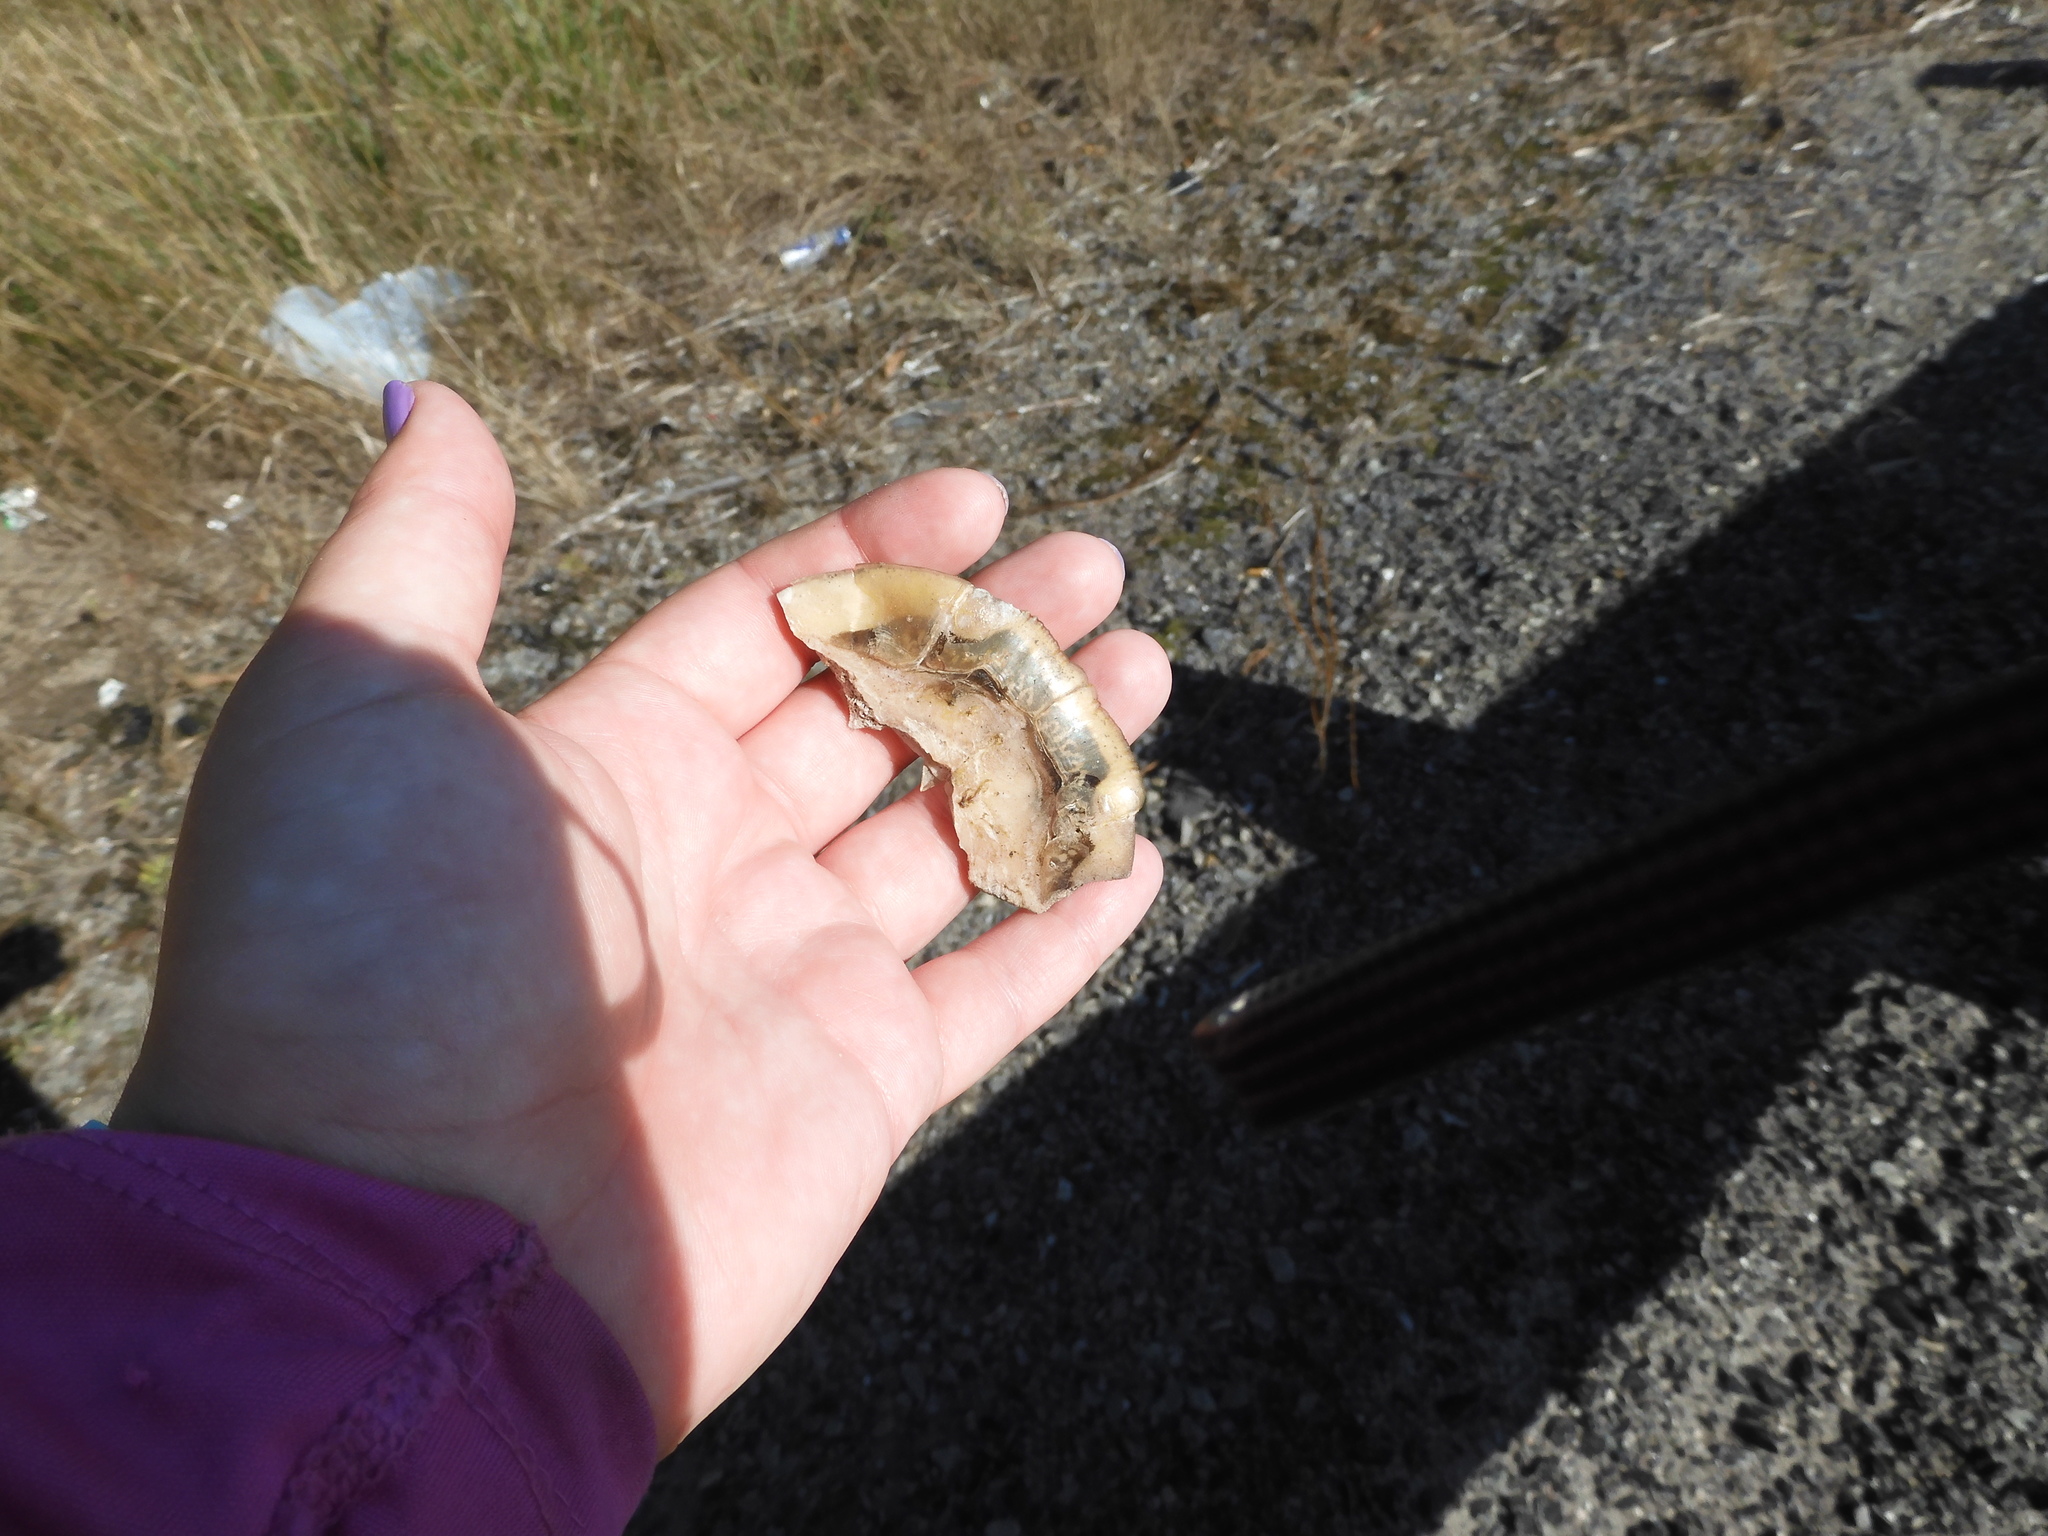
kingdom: Animalia
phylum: Chordata
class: Testudines
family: Emydidae
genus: Chrysemys
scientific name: Chrysemys picta
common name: Painted turtle
